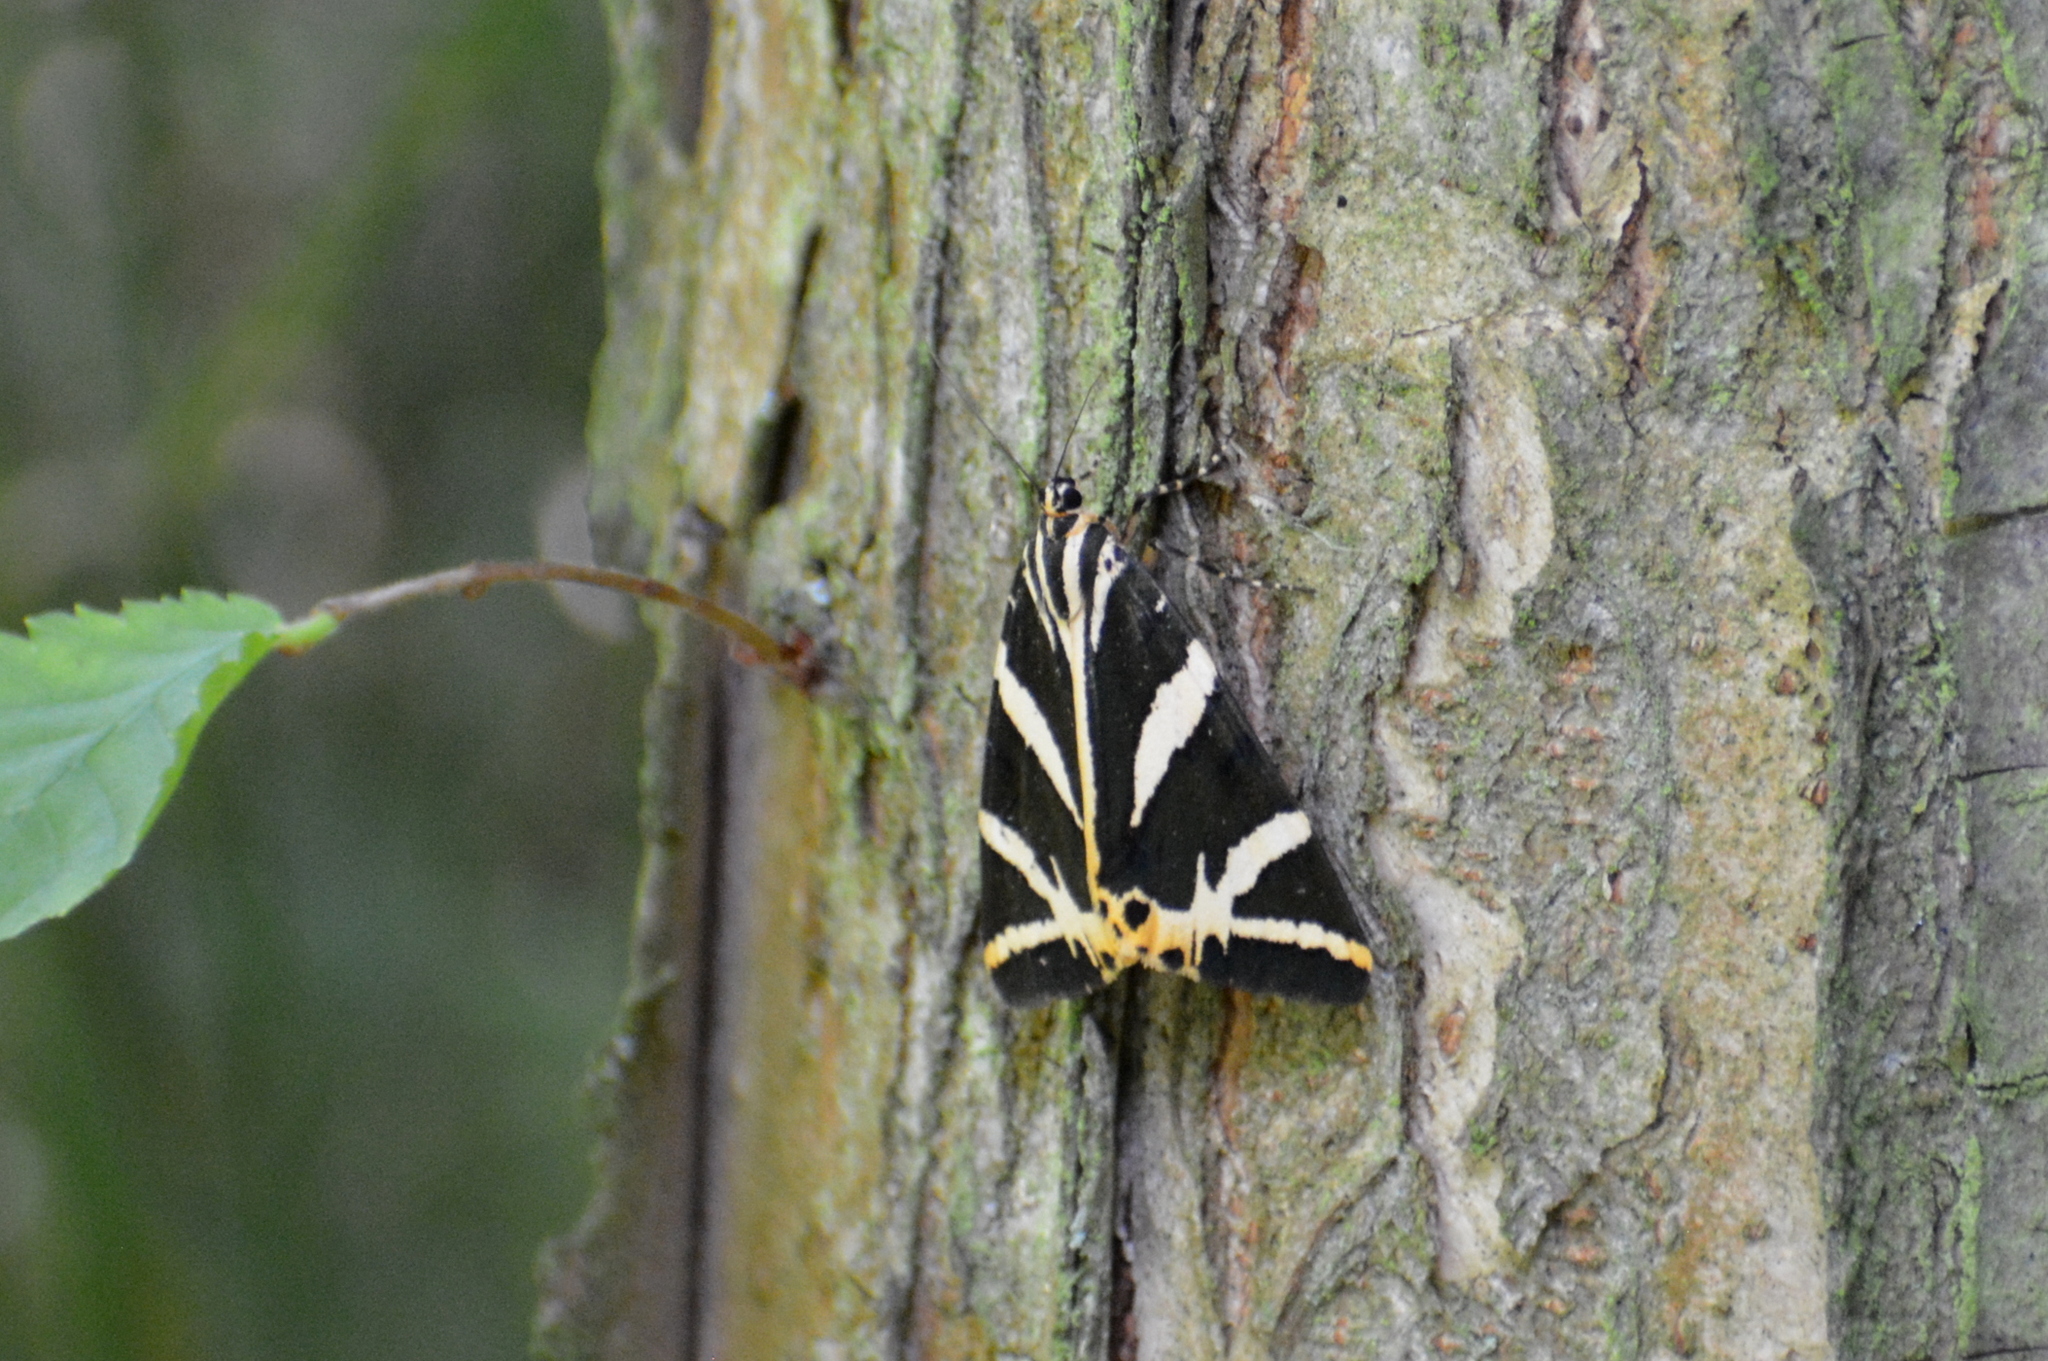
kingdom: Animalia
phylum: Arthropoda
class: Insecta
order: Lepidoptera
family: Erebidae
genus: Euplagia
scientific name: Euplagia quadripunctaria
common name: Jersey tiger
